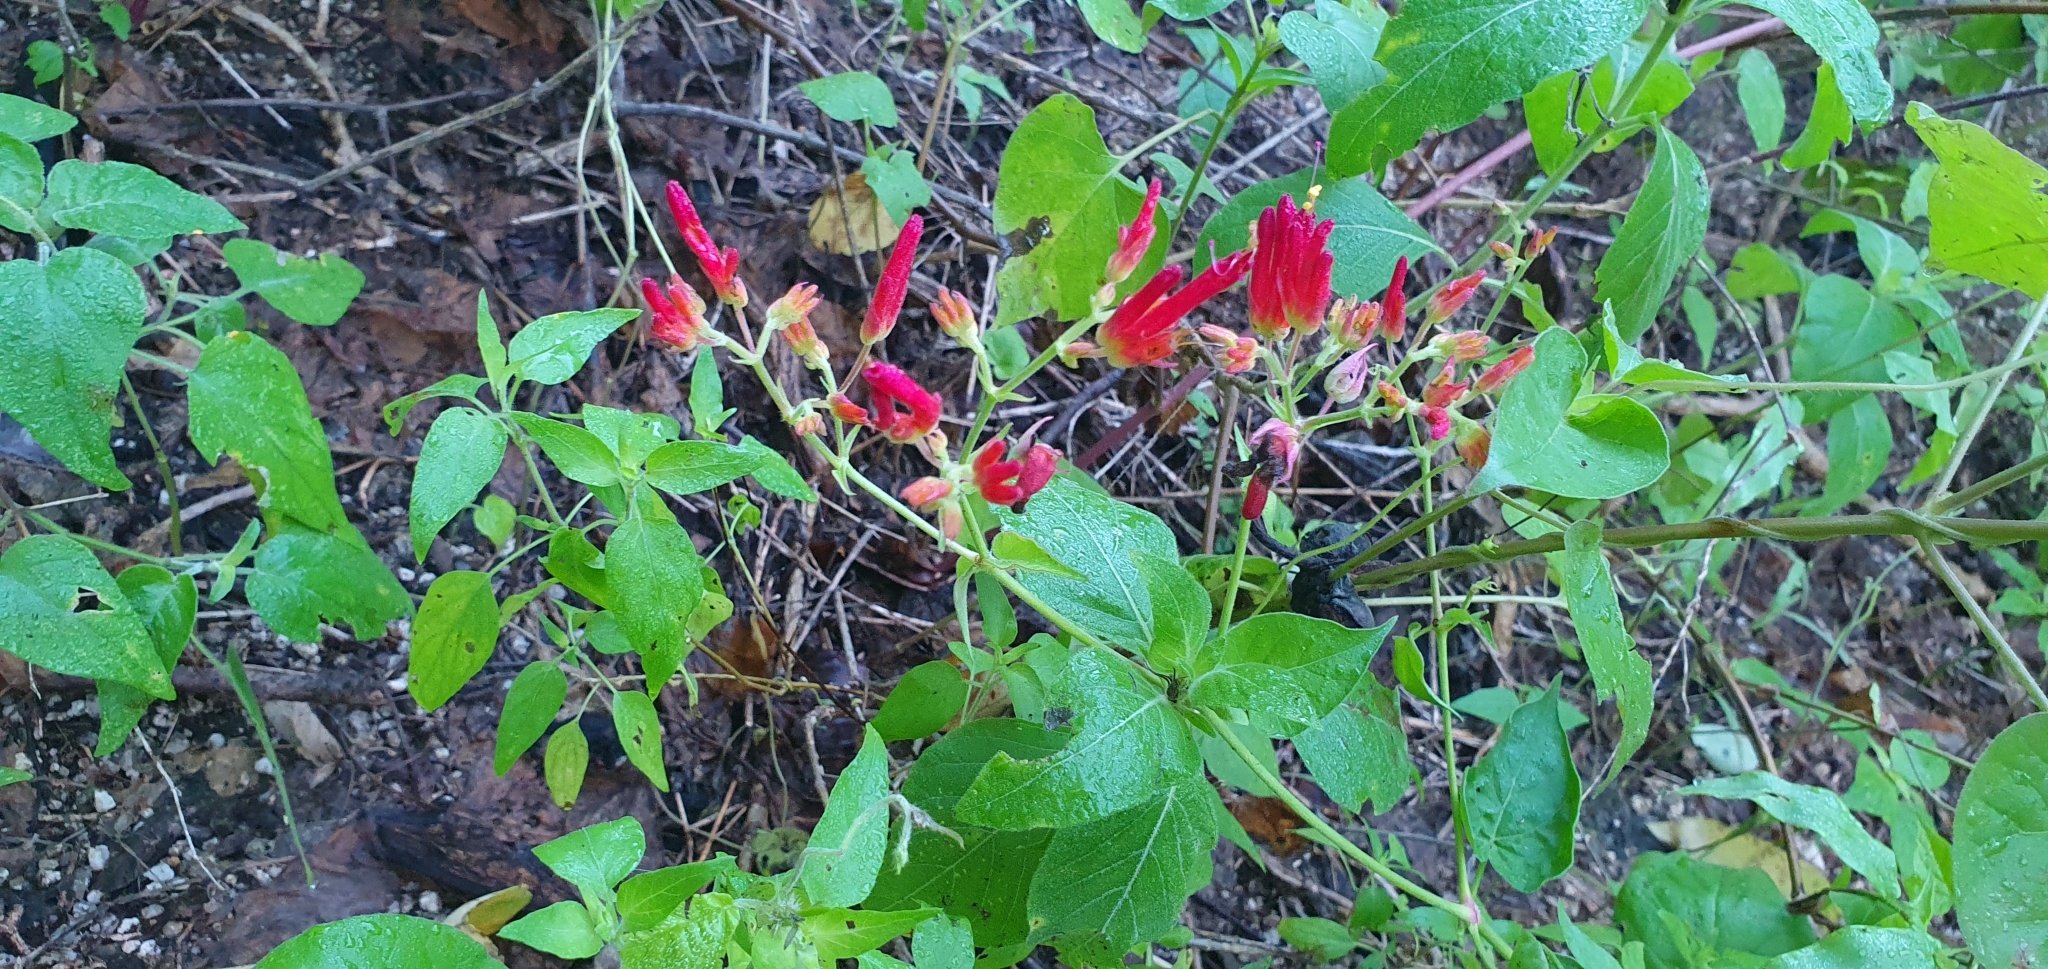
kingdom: Plantae
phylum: Tracheophyta
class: Magnoliopsida
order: Caryophyllales
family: Nyctaginaceae
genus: Mirabilis
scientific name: Mirabilis triflora
